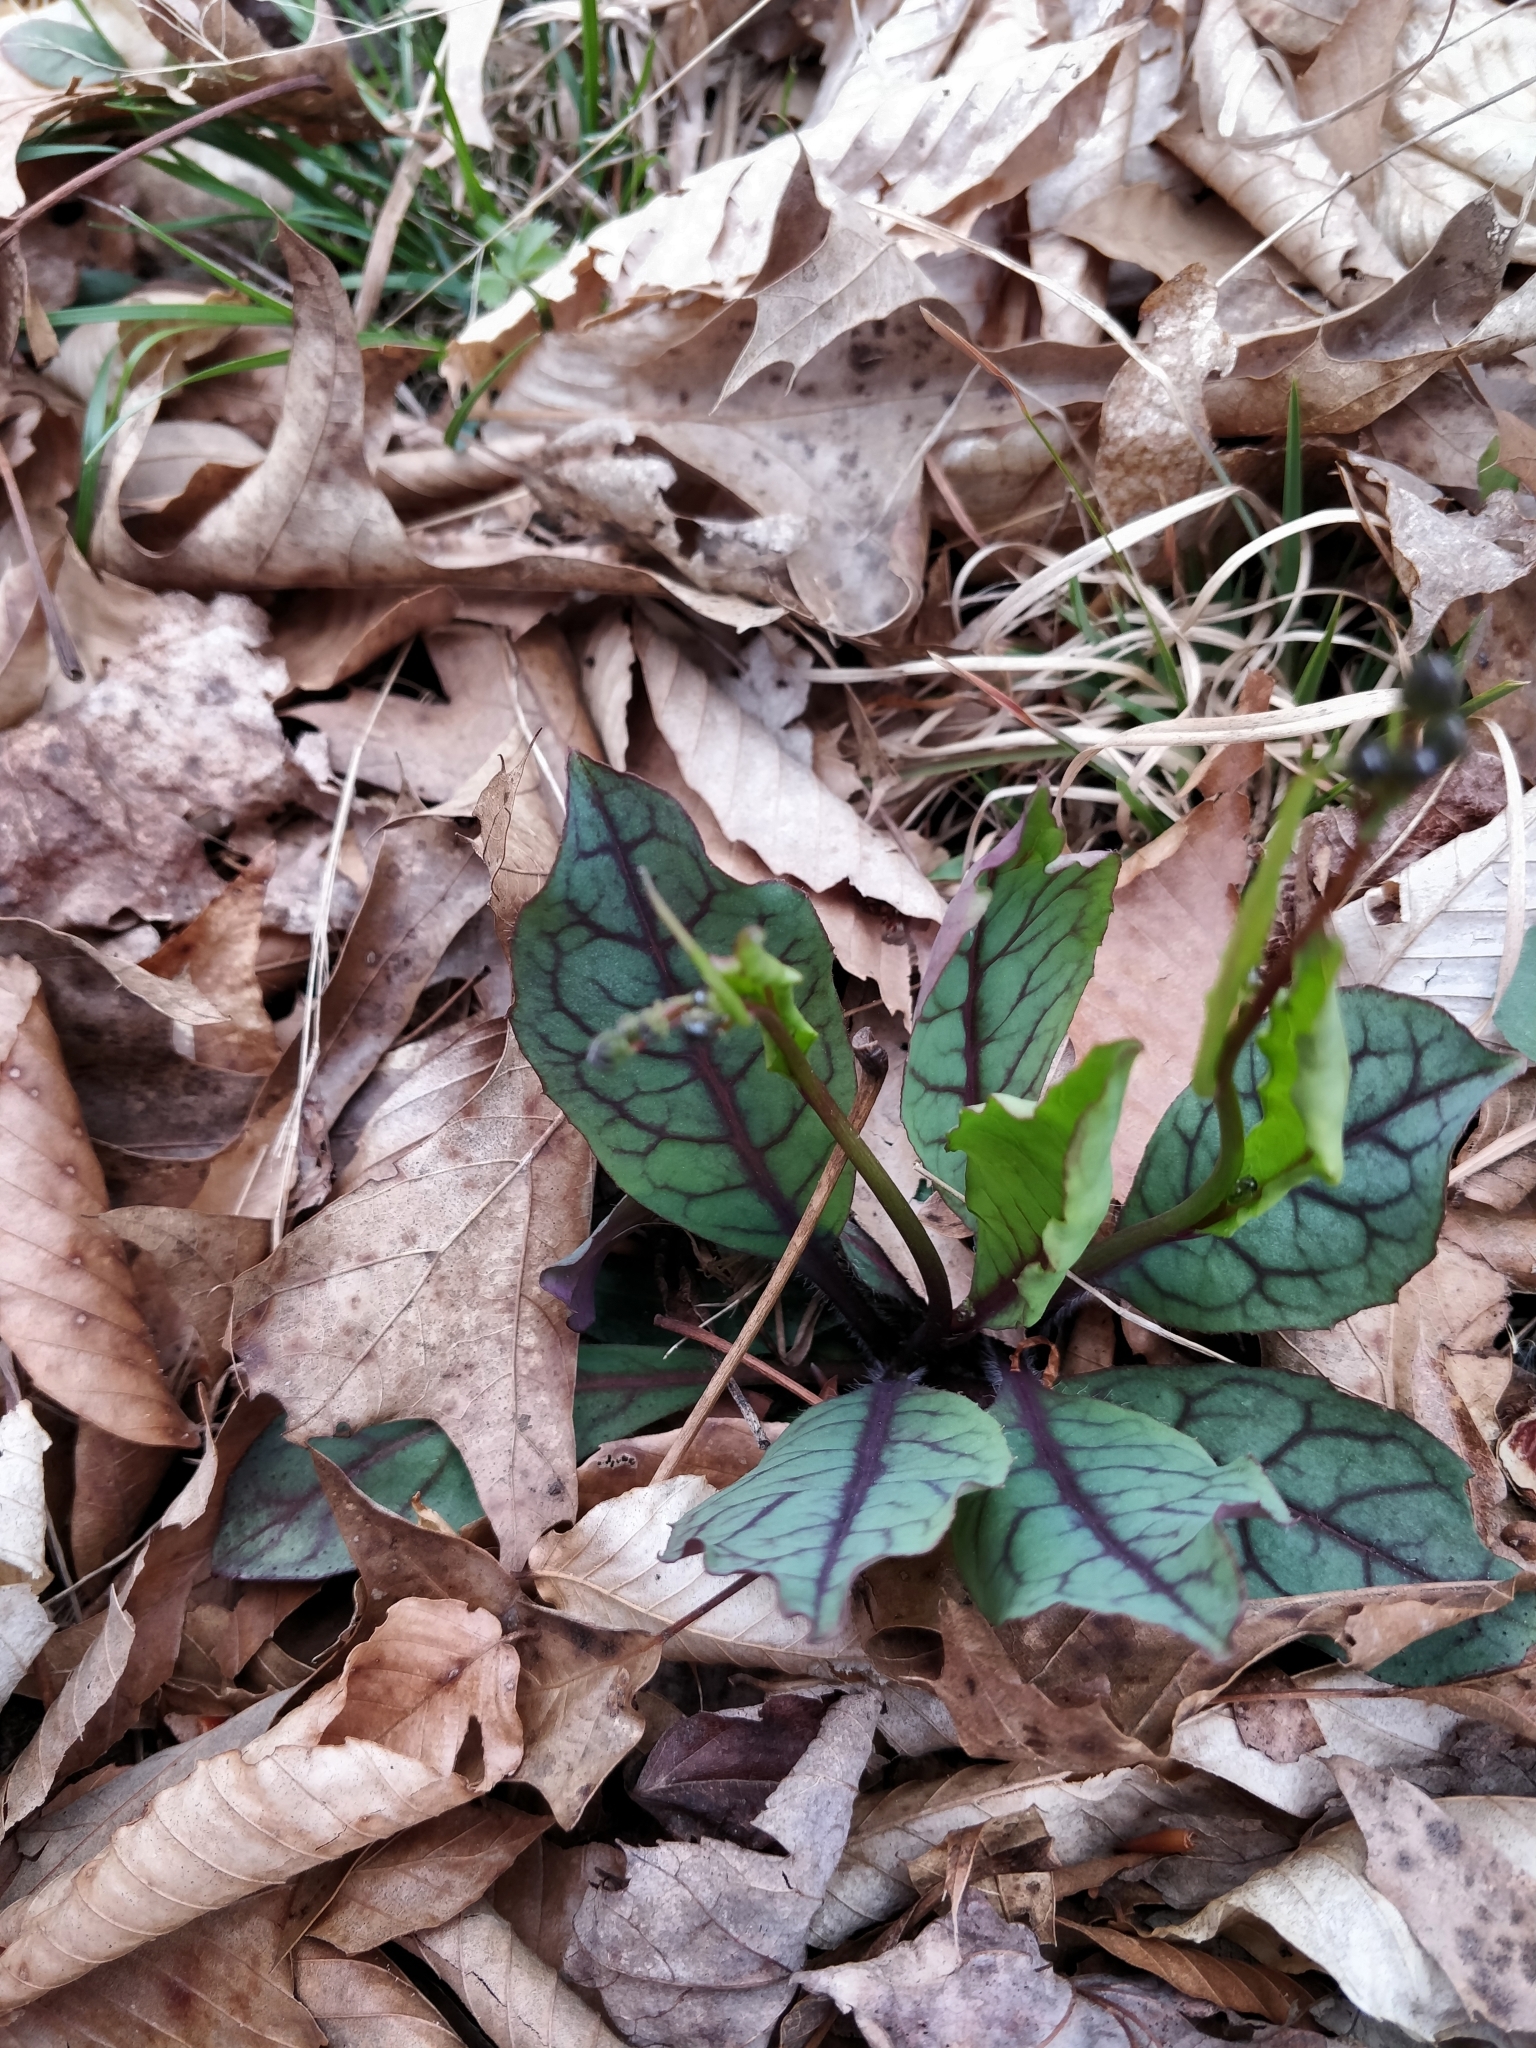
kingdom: Plantae
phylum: Tracheophyta
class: Magnoliopsida
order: Asterales
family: Asteraceae
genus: Hieracium
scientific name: Hieracium venosum
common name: Rattlesnake hawkweed
